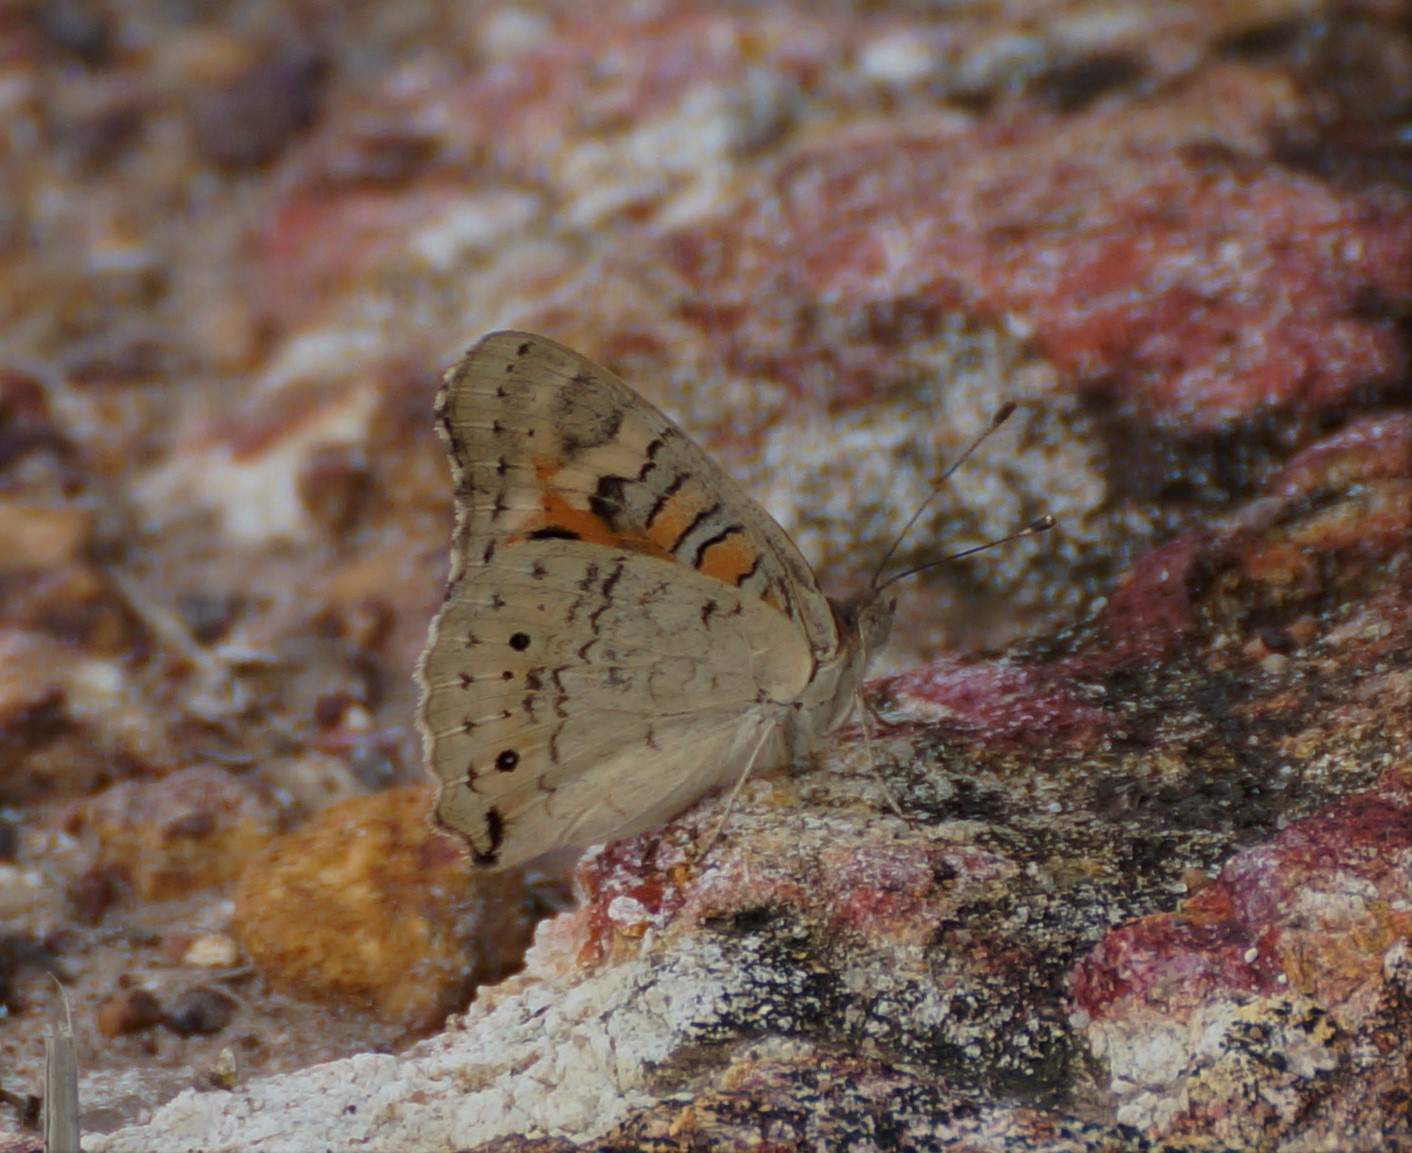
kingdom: Animalia
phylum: Arthropoda
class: Insecta
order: Lepidoptera
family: Nymphalidae
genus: Junonia
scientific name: Junonia villida
